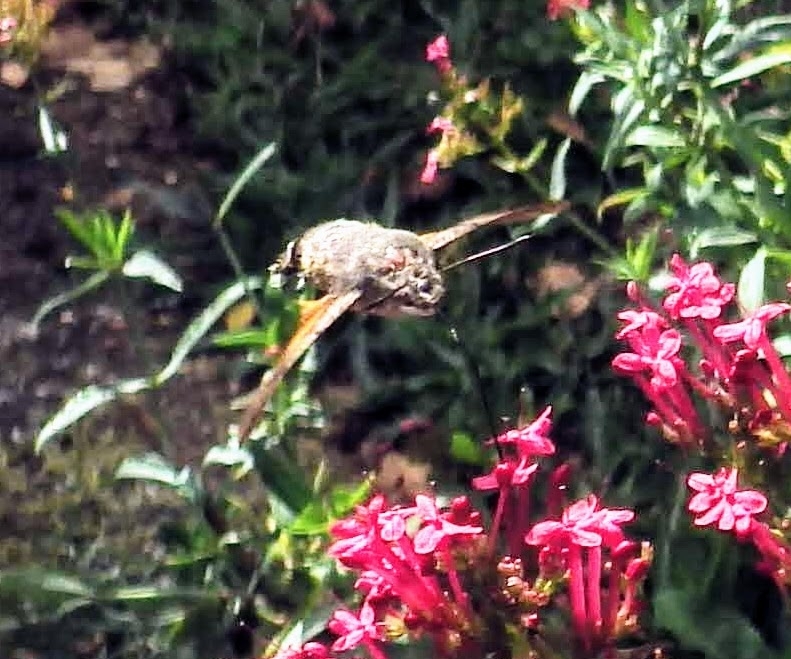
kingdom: Animalia
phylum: Arthropoda
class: Insecta
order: Lepidoptera
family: Sphingidae
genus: Macroglossum
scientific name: Macroglossum stellatarum
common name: Humming-bird hawk-moth
